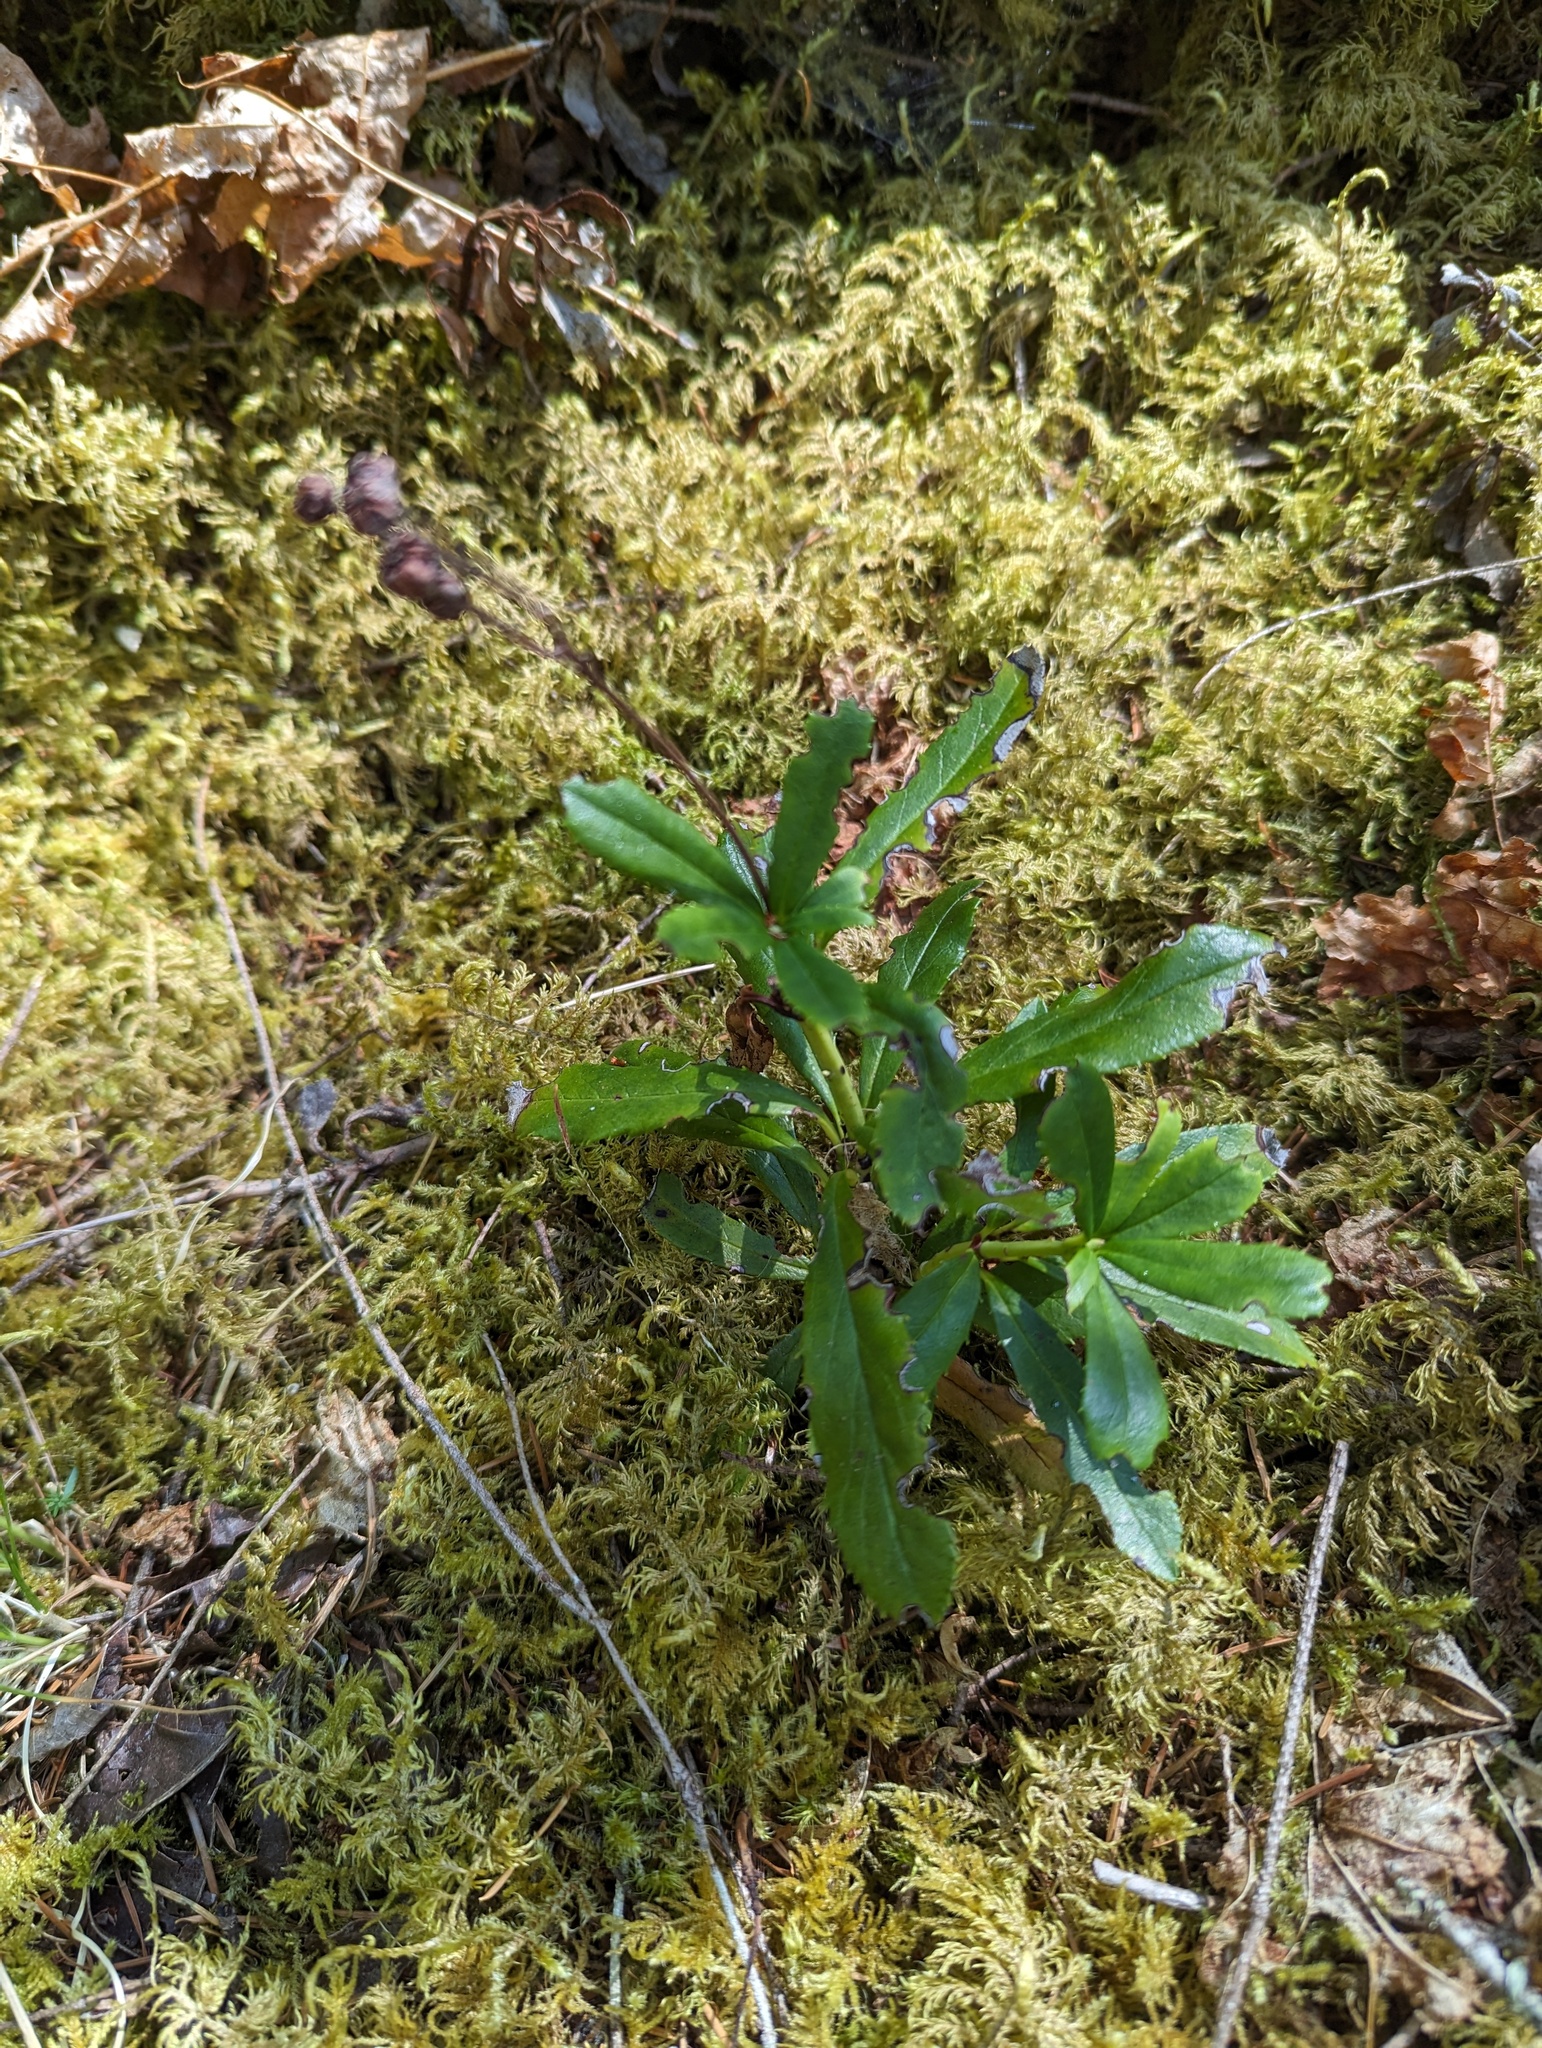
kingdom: Plantae
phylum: Tracheophyta
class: Magnoliopsida
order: Ericales
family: Ericaceae
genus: Chimaphila
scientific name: Chimaphila umbellata
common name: Pipsissewa
